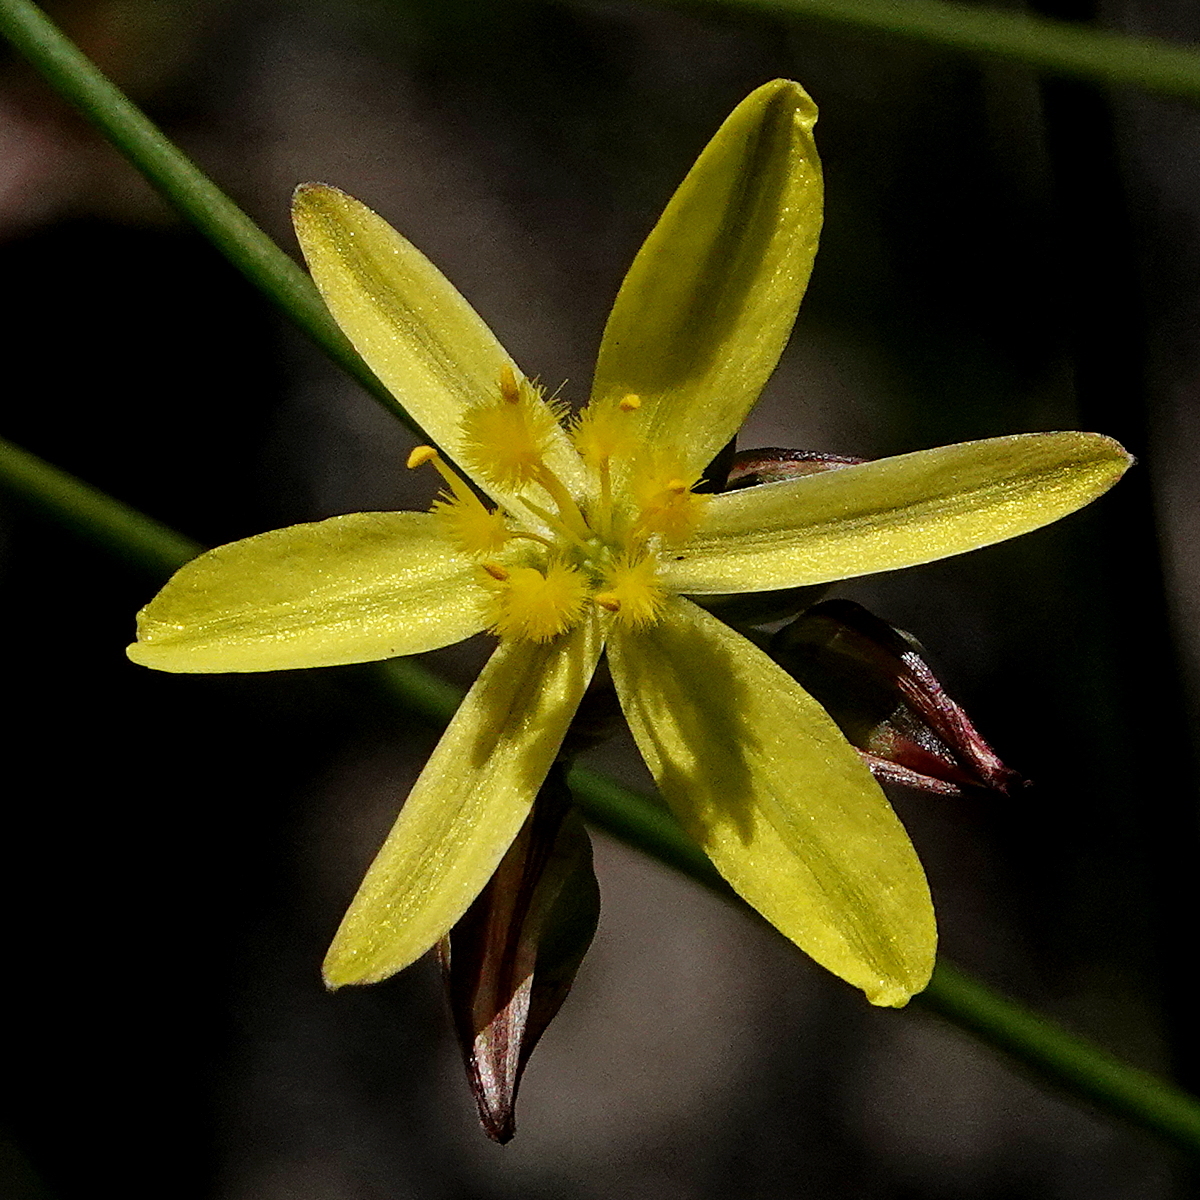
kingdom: Plantae
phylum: Tracheophyta
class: Liliopsida
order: Asparagales
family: Asphodelaceae
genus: Tricoryne
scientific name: Tricoryne elatior
